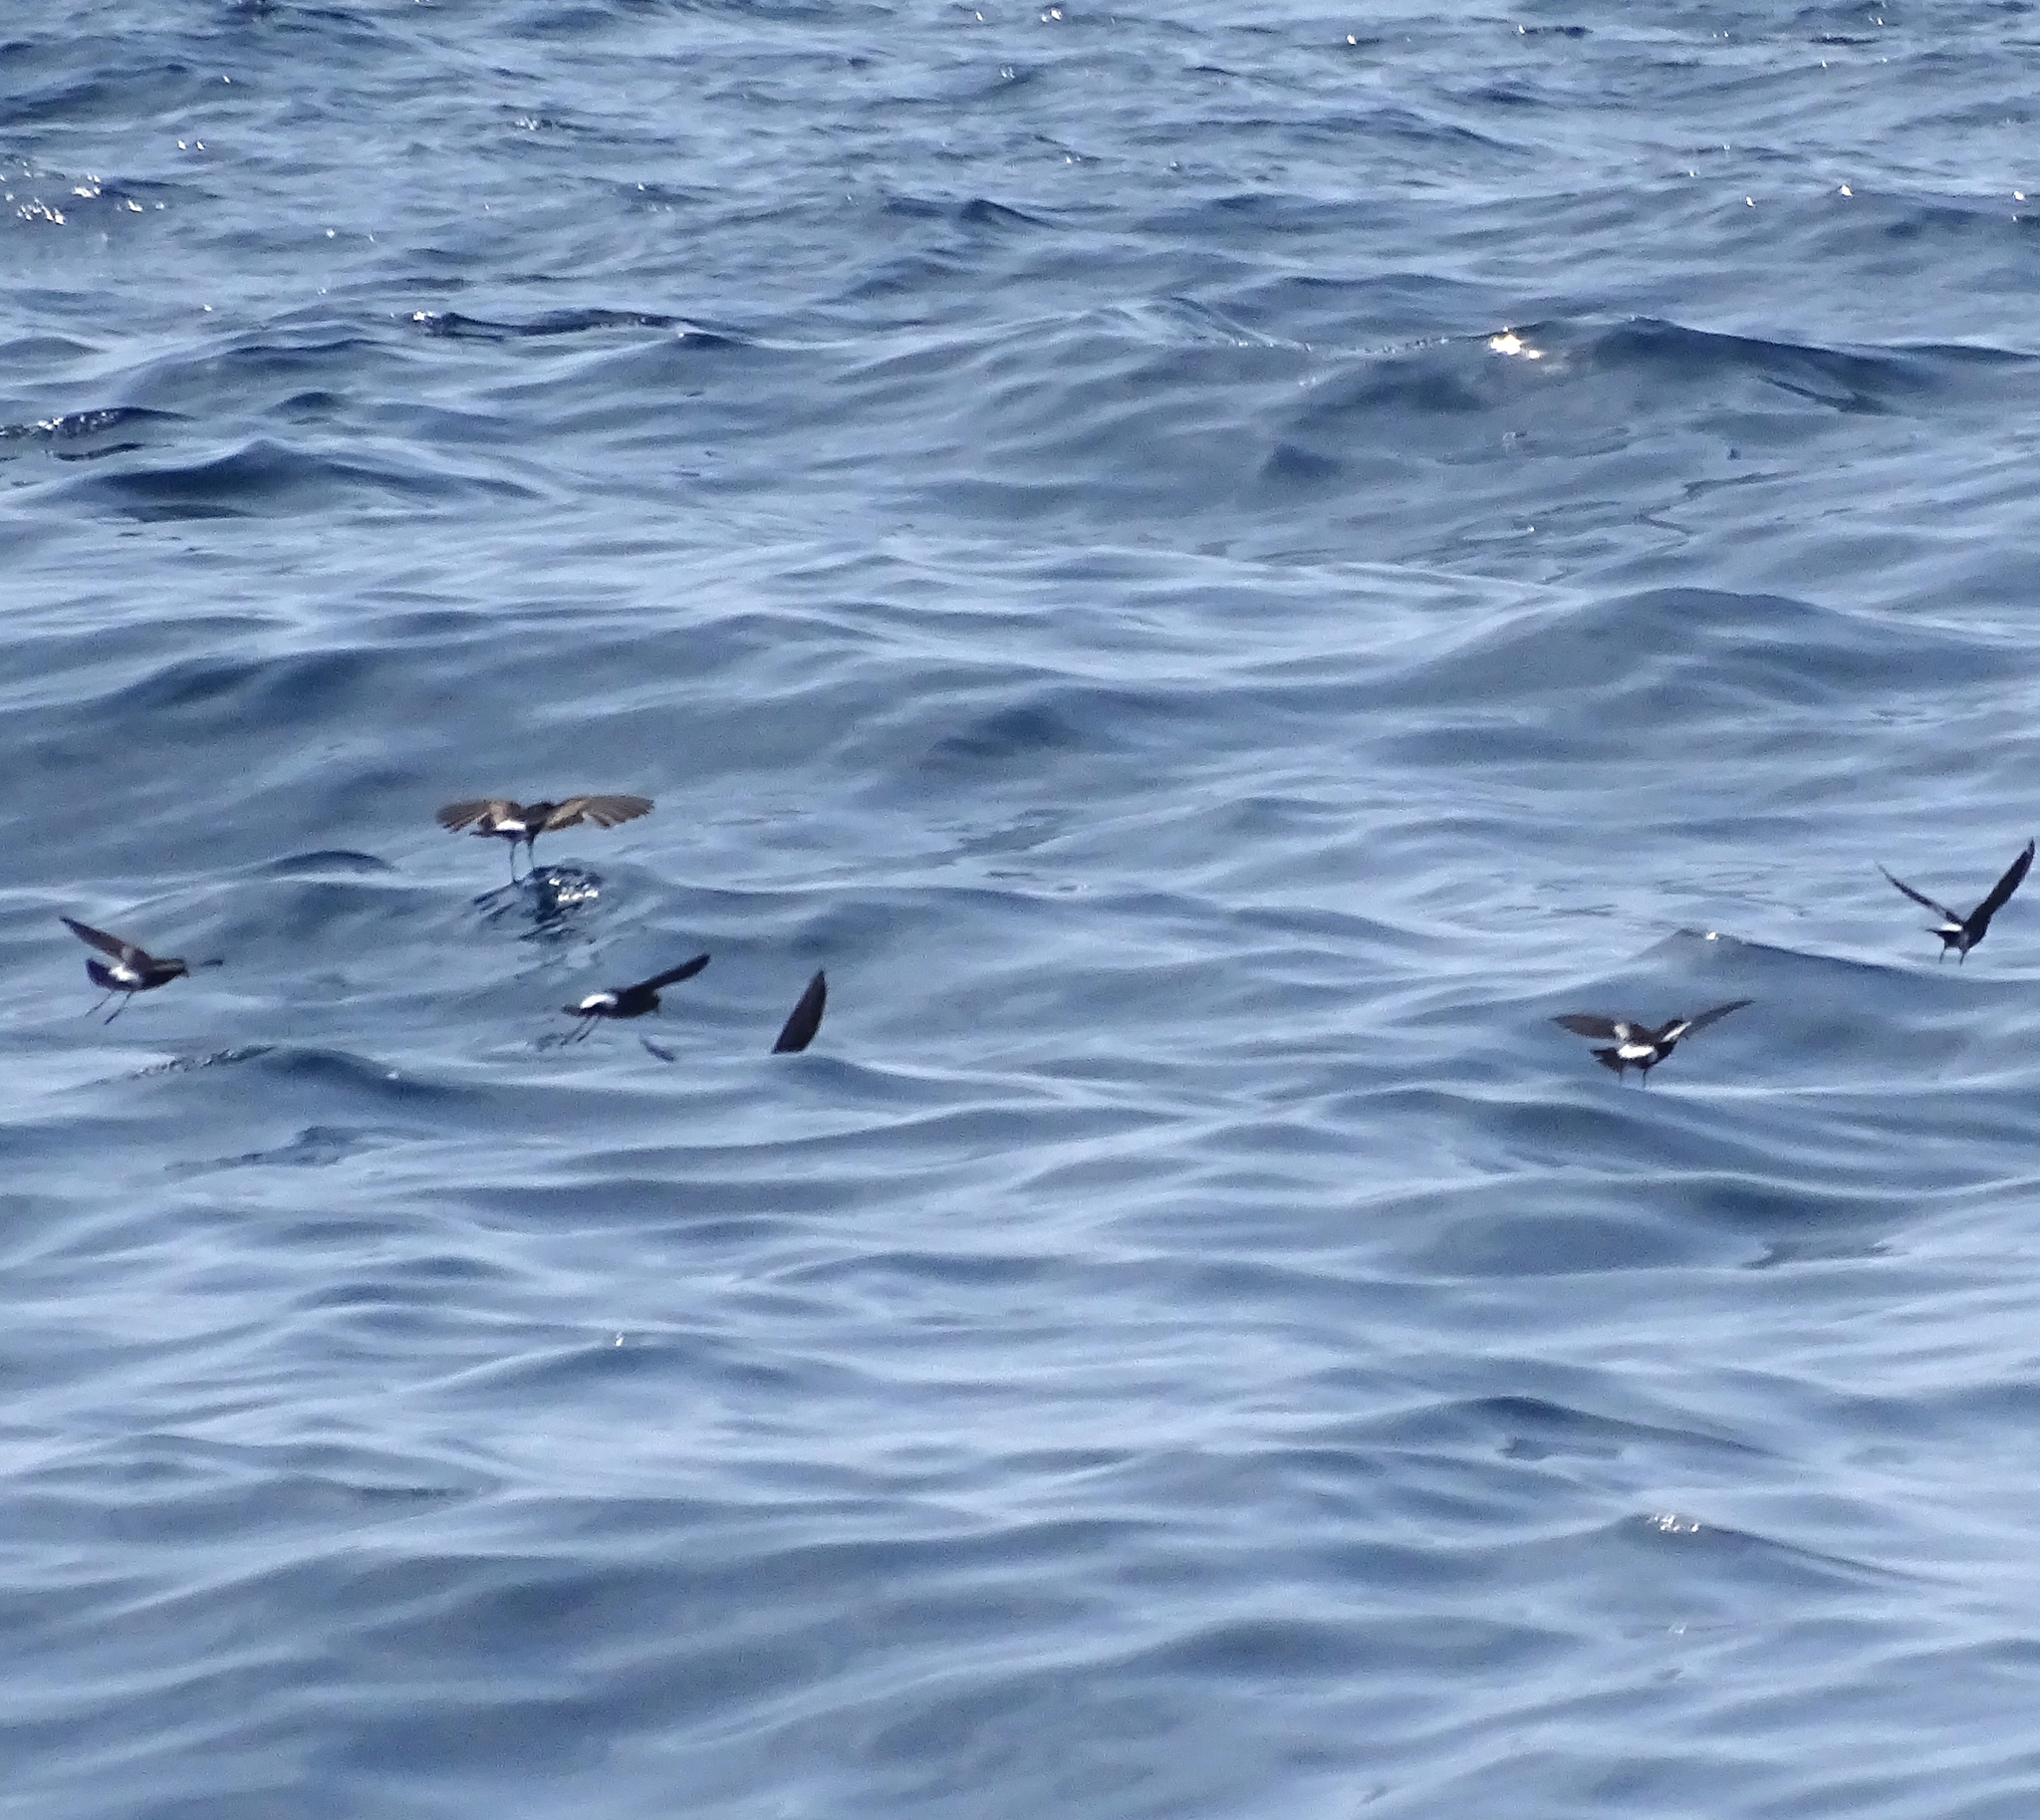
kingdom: Animalia
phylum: Chordata
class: Aves
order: Procellariiformes
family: Hydrobatidae
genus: Oceanites
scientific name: Oceanites oceanicus
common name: Wilson's storm petrel
